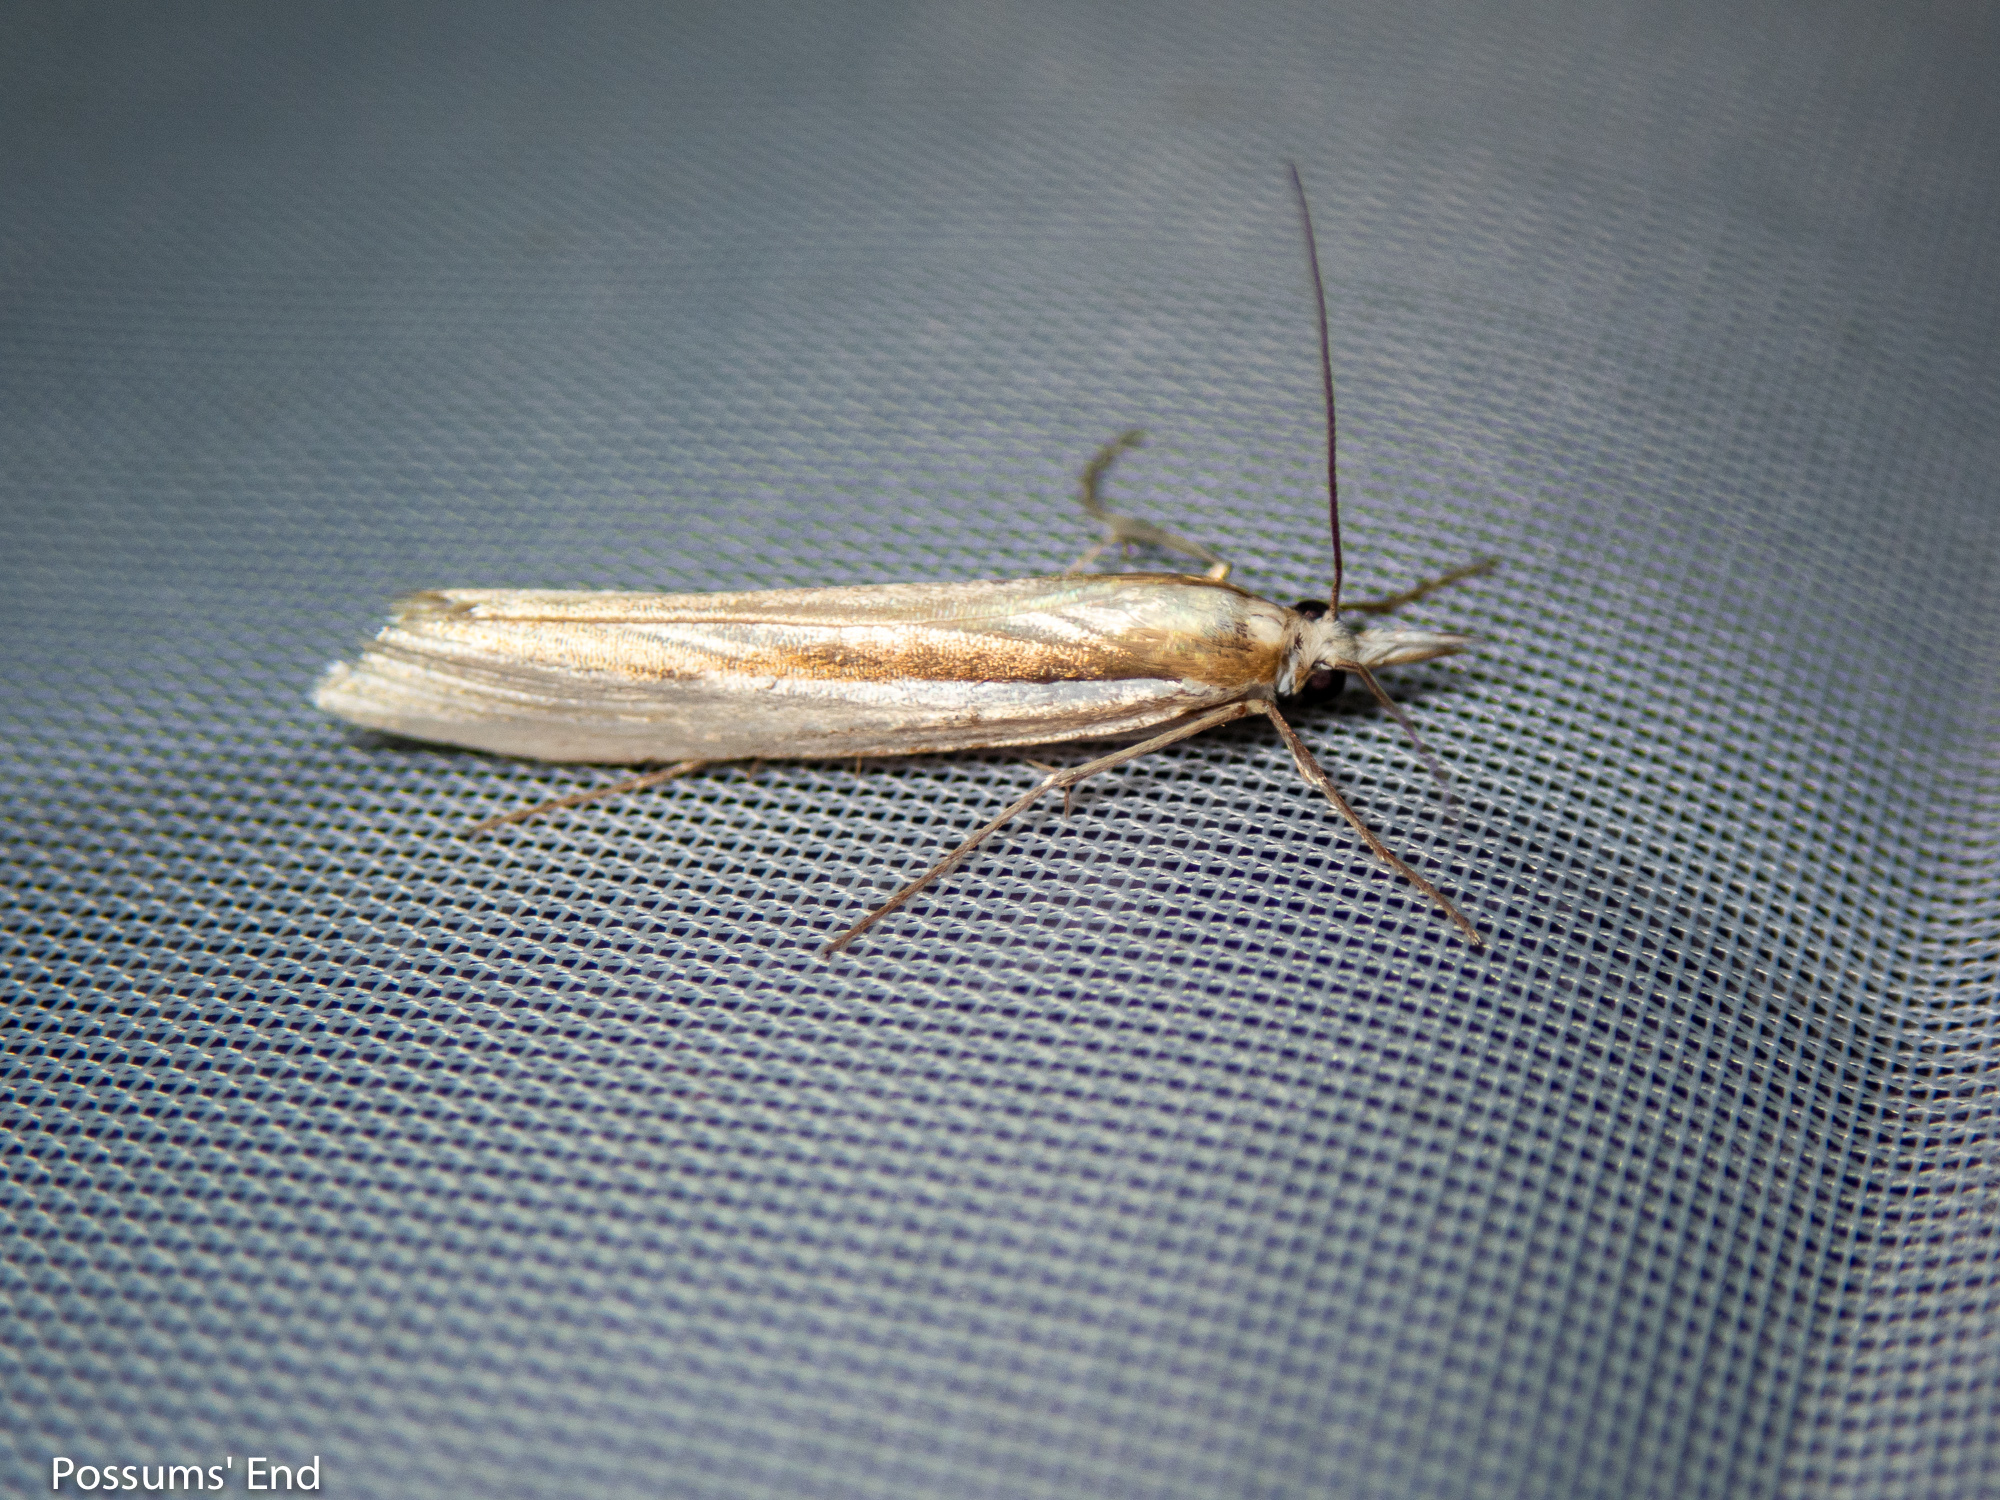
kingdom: Animalia
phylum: Arthropoda
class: Insecta
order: Lepidoptera
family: Crambidae
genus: Orocrambus
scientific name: Orocrambus ramosellus
